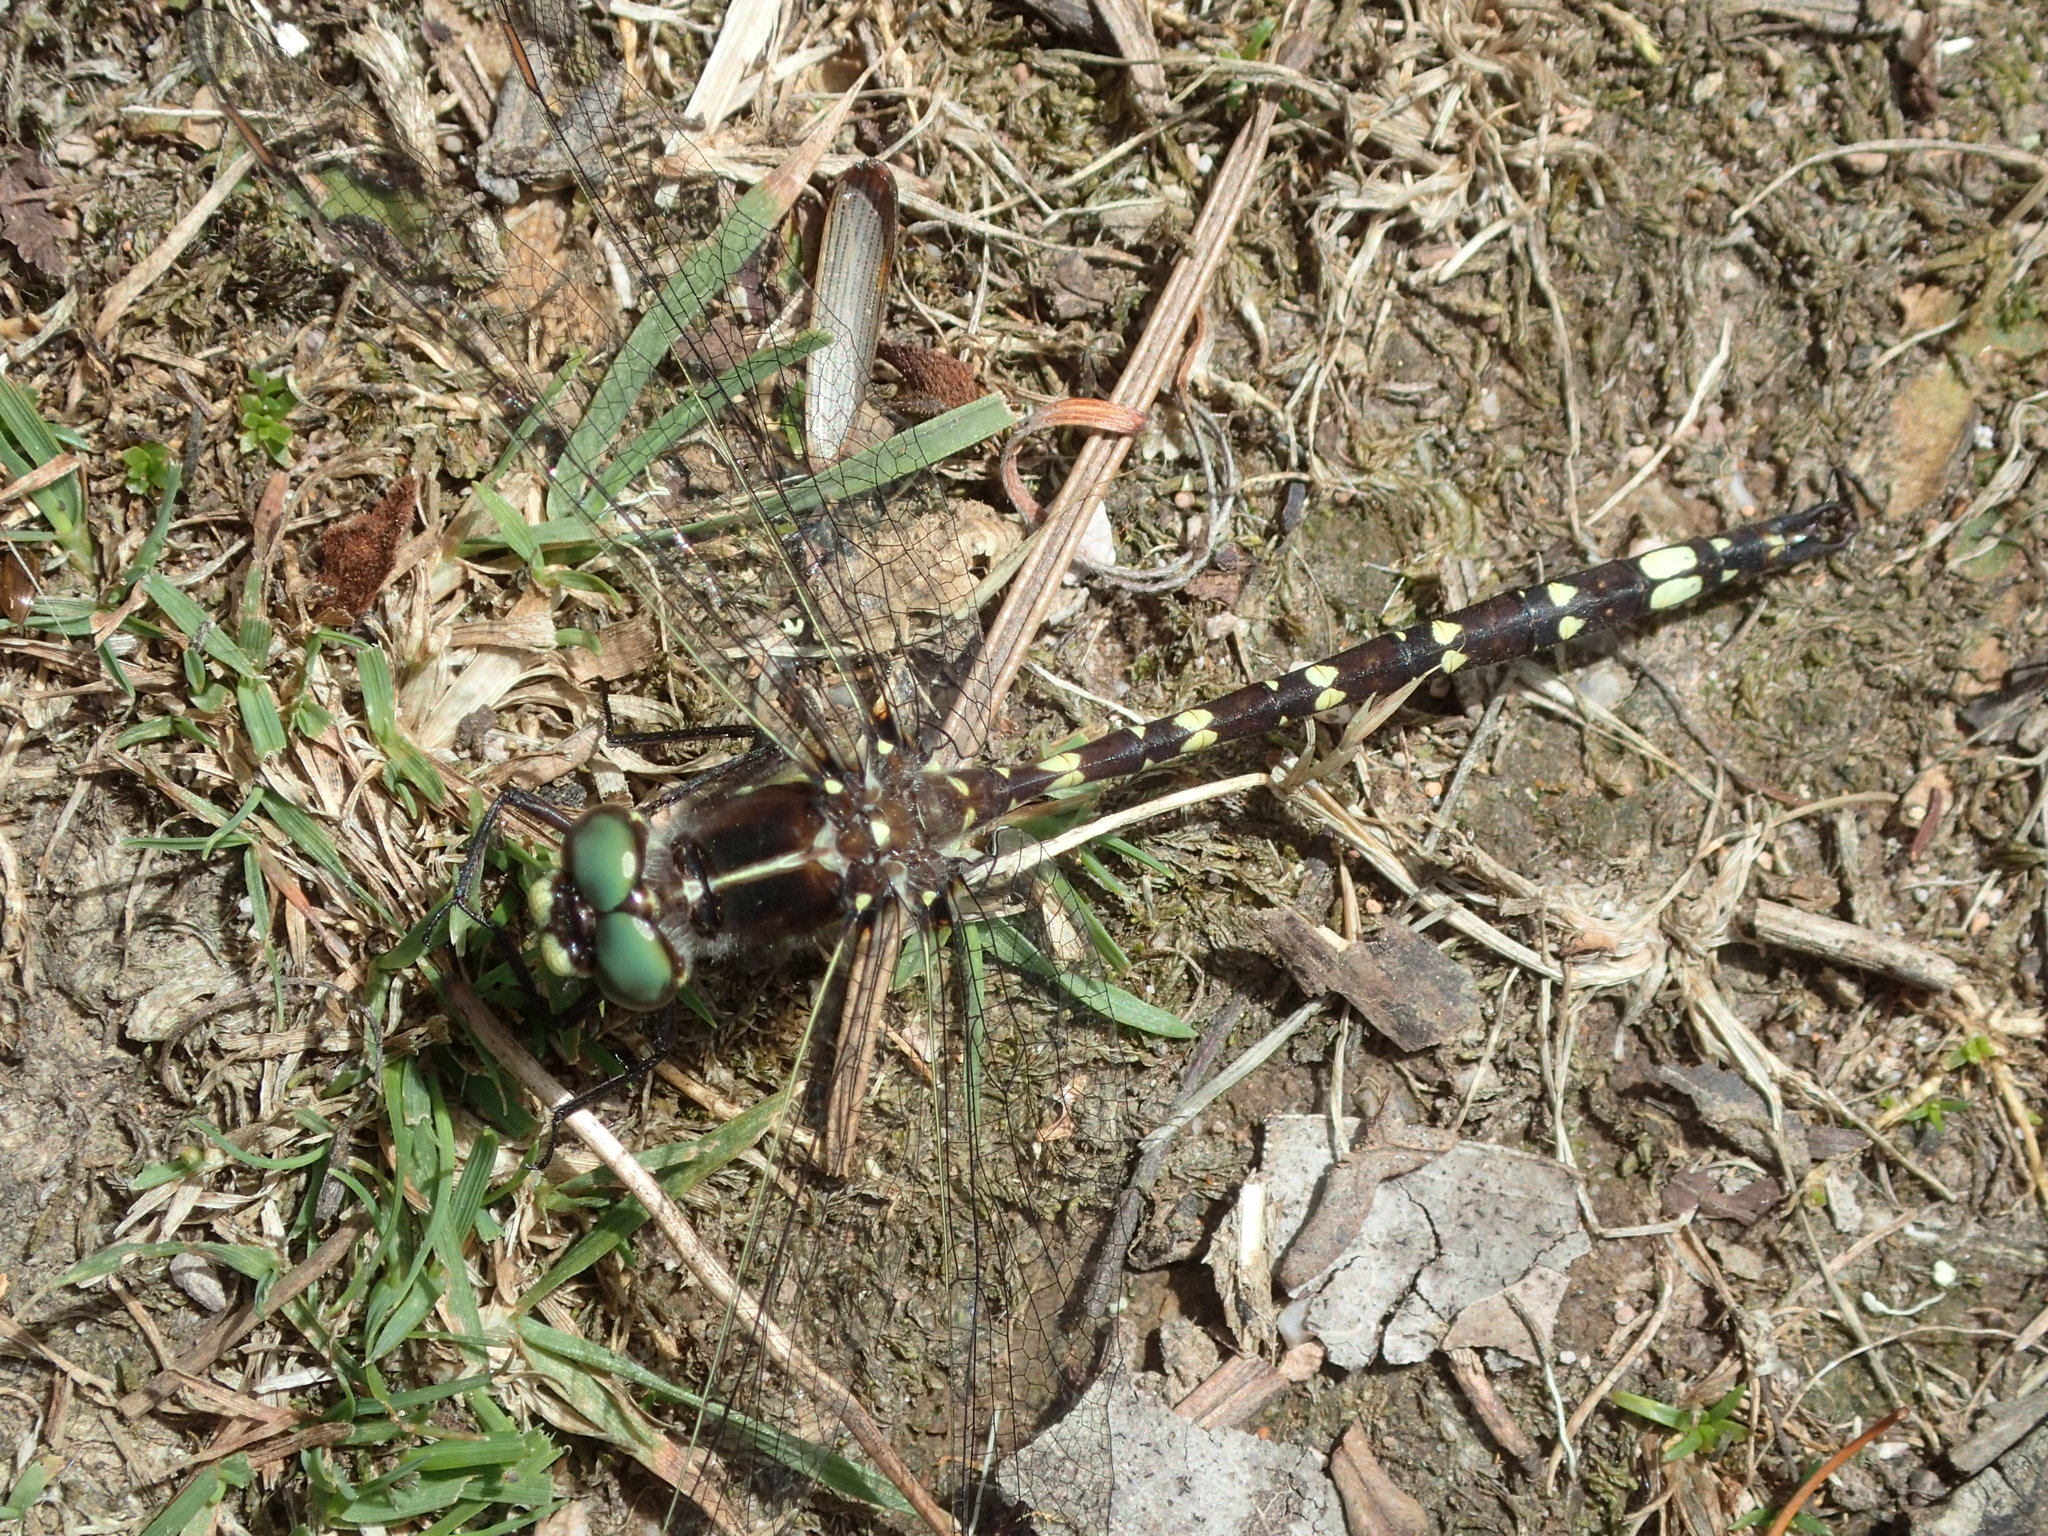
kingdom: Animalia
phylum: Arthropoda
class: Insecta
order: Odonata
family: Synthemistidae
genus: Synthemis
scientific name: Synthemis tasmanica
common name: Tasmanian swamp tigertail
